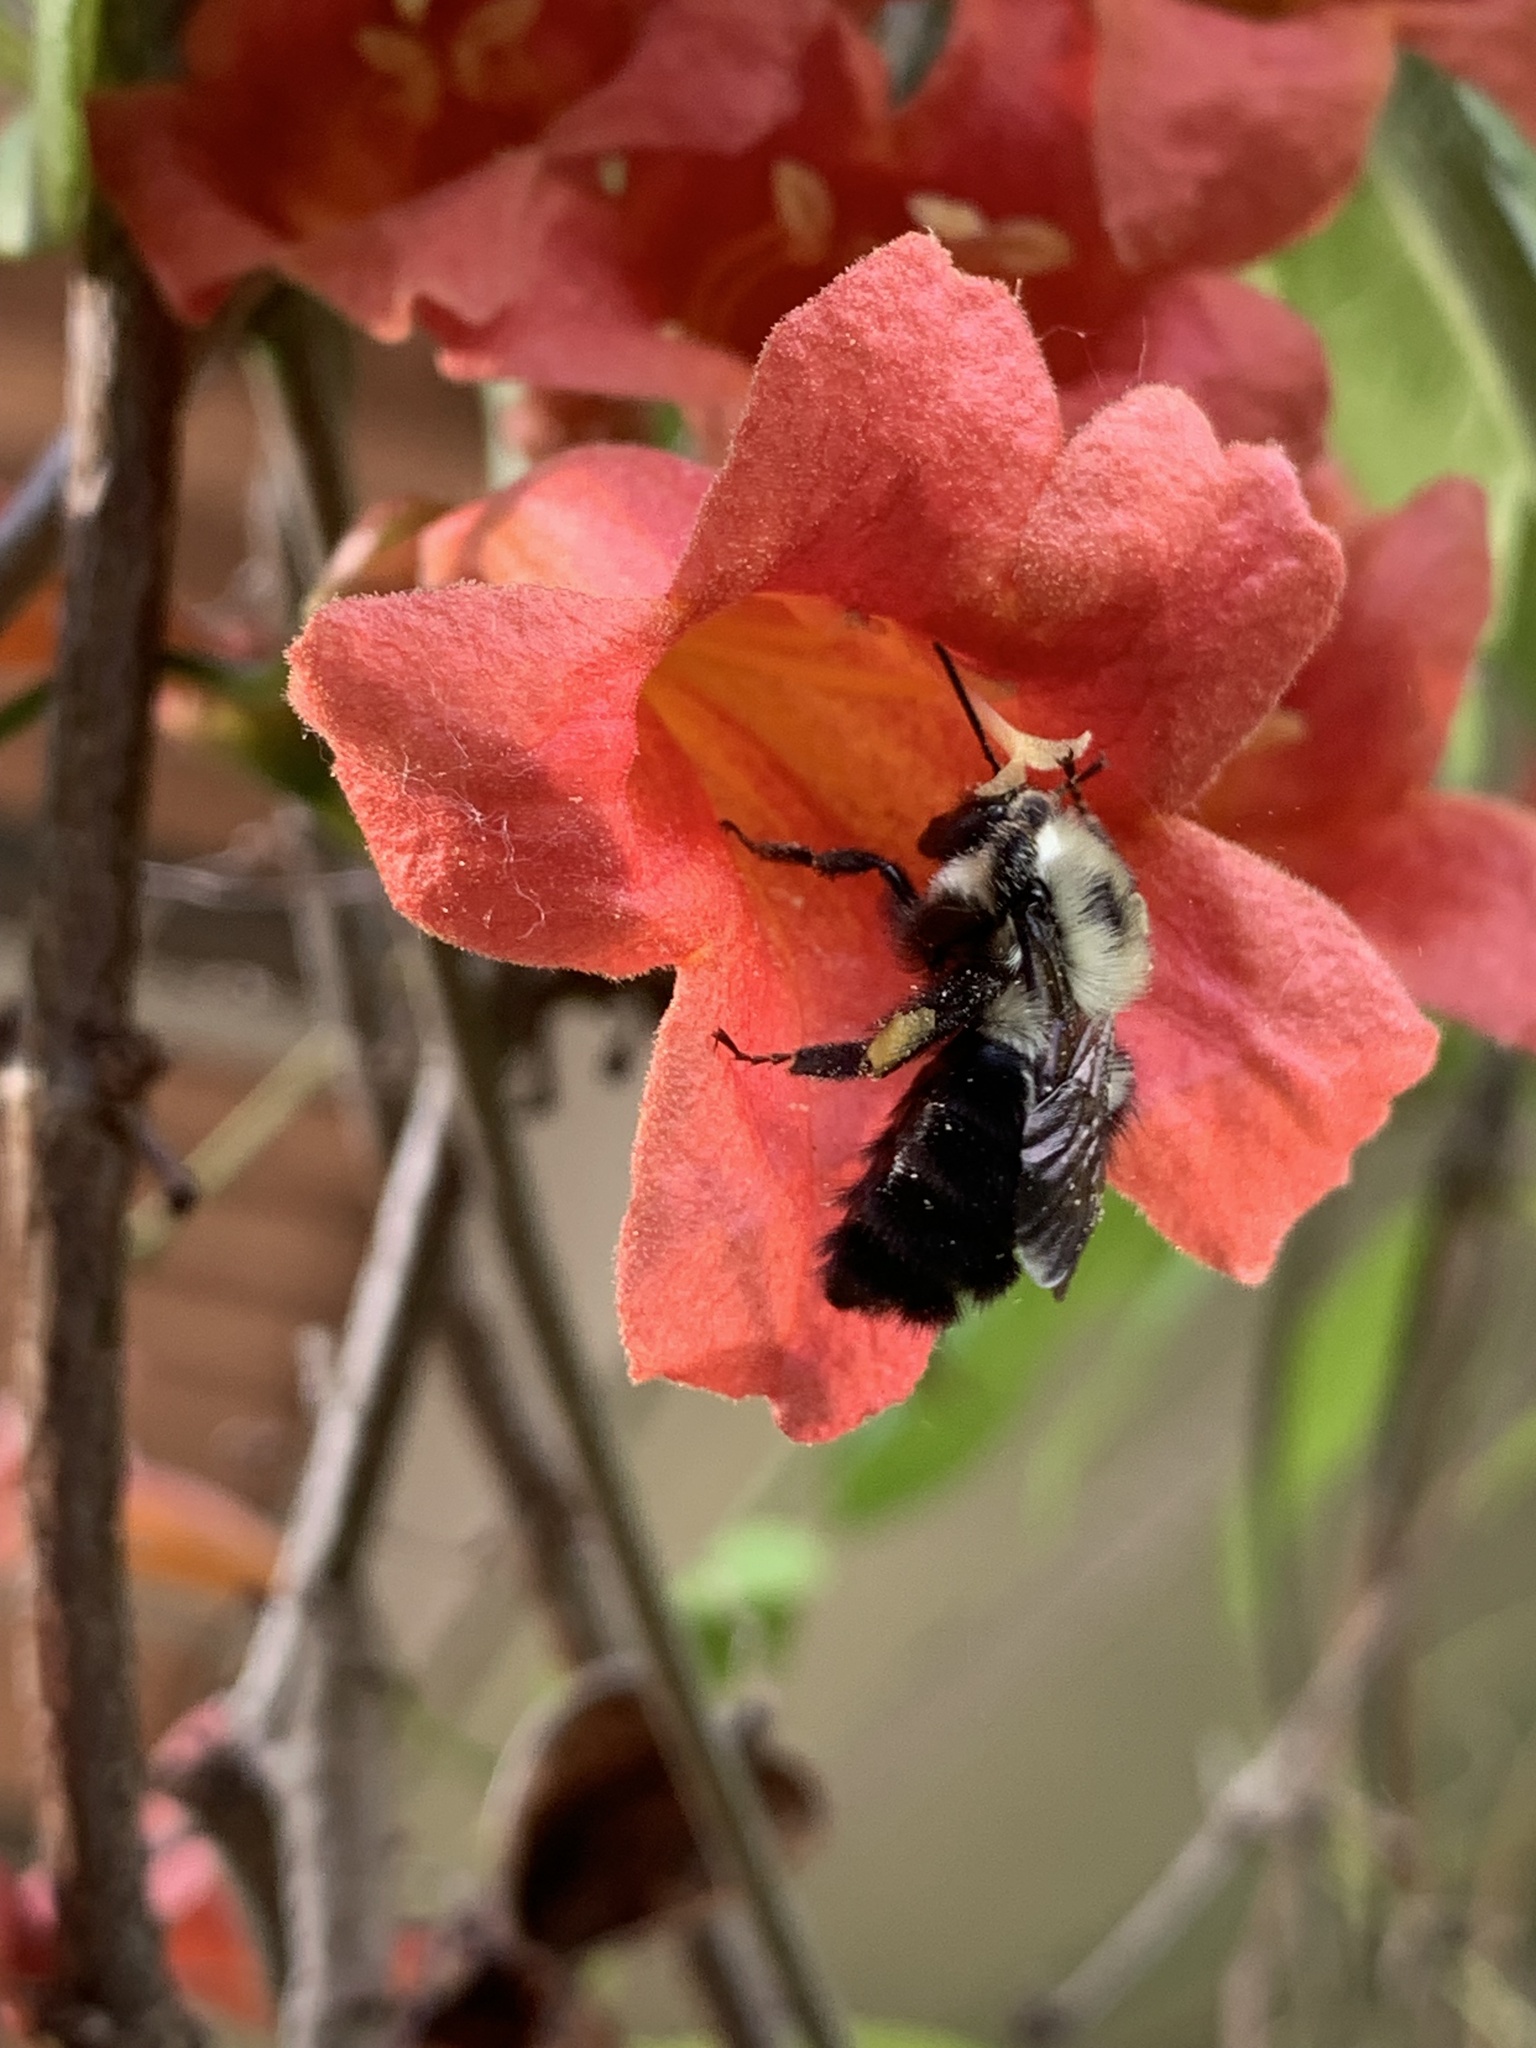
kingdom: Animalia
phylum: Arthropoda
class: Insecta
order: Hymenoptera
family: Apidae
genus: Bombus
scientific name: Bombus bimaculatus
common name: Two-spotted bumble bee
